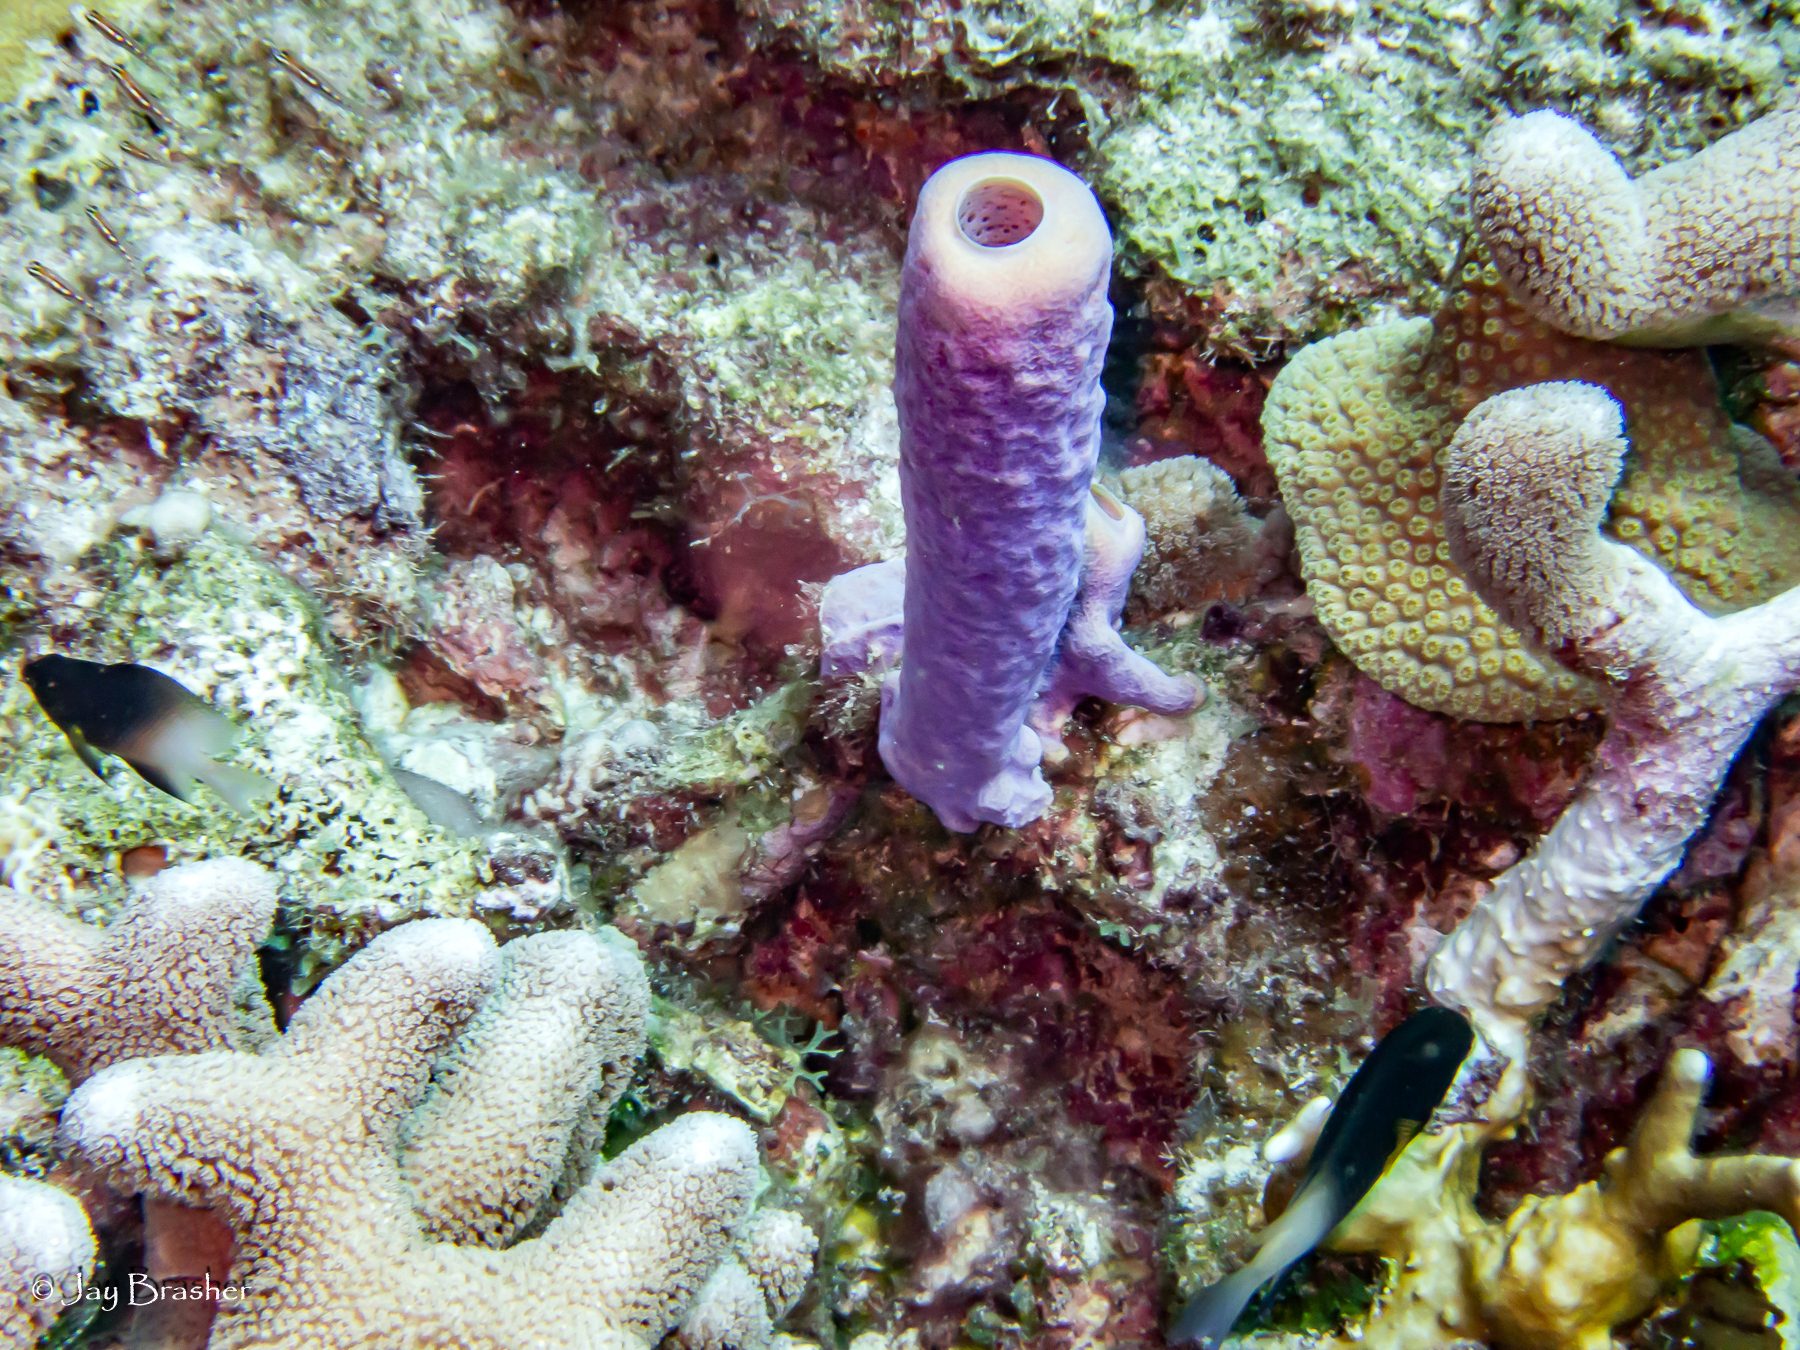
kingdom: Animalia
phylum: Chordata
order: Perciformes
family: Pomacentridae
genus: Stegastes
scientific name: Stegastes partitus
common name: Bicolor damselfish
